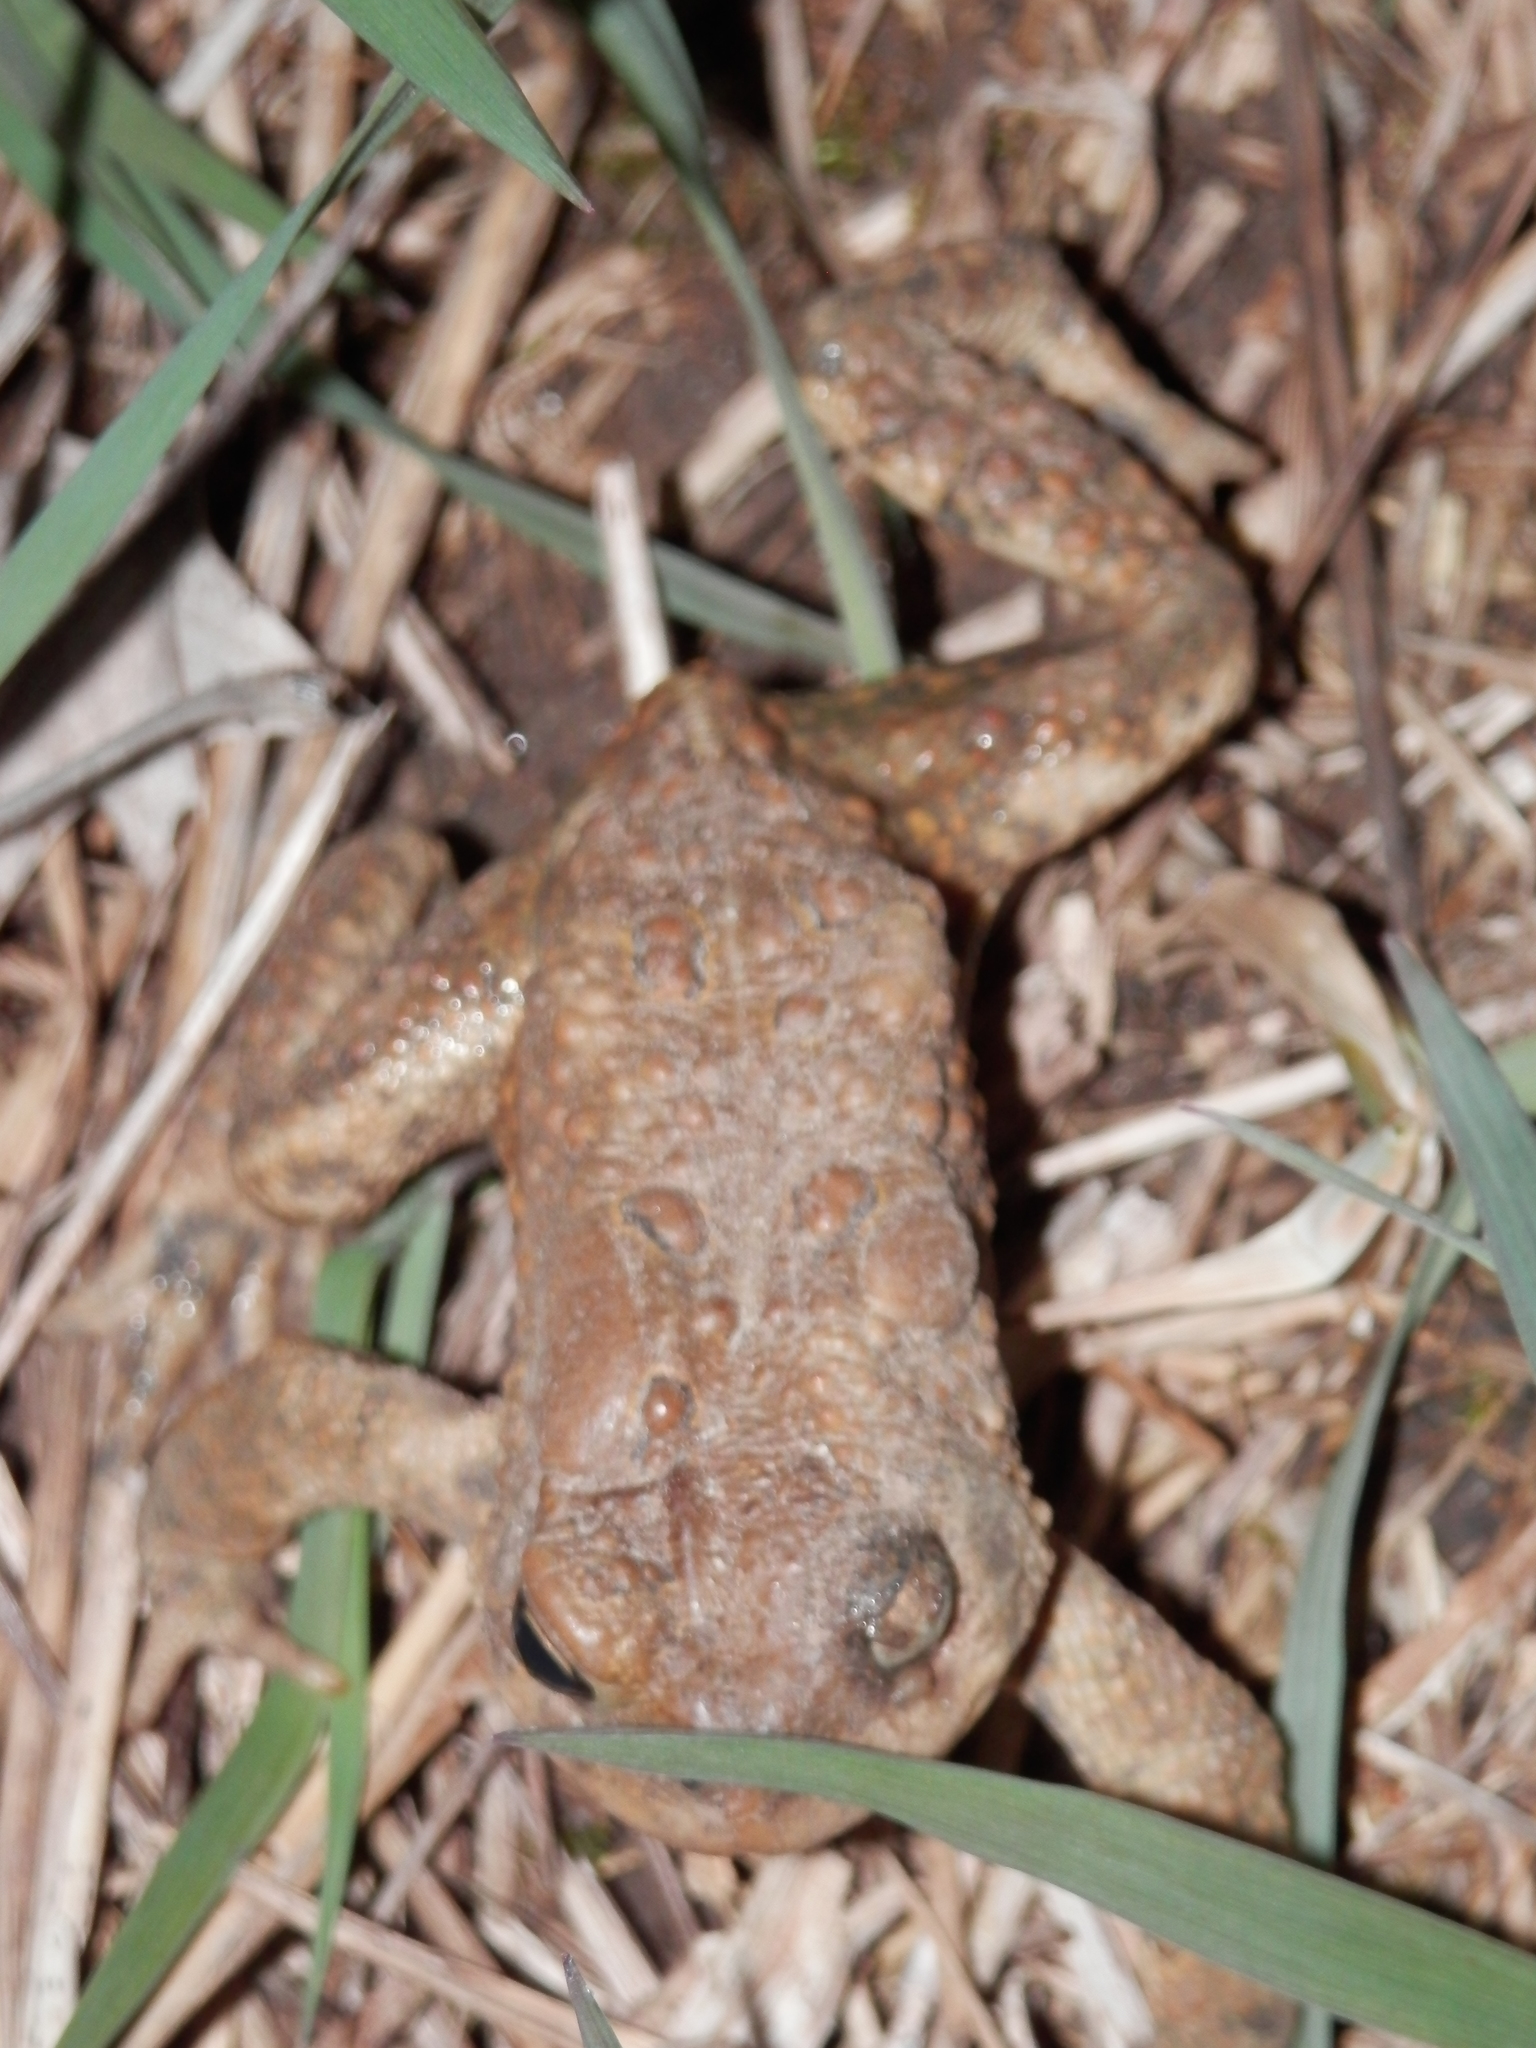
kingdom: Animalia
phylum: Chordata
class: Amphibia
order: Anura
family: Bufonidae
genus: Anaxyrus
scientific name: Anaxyrus americanus
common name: American toad
